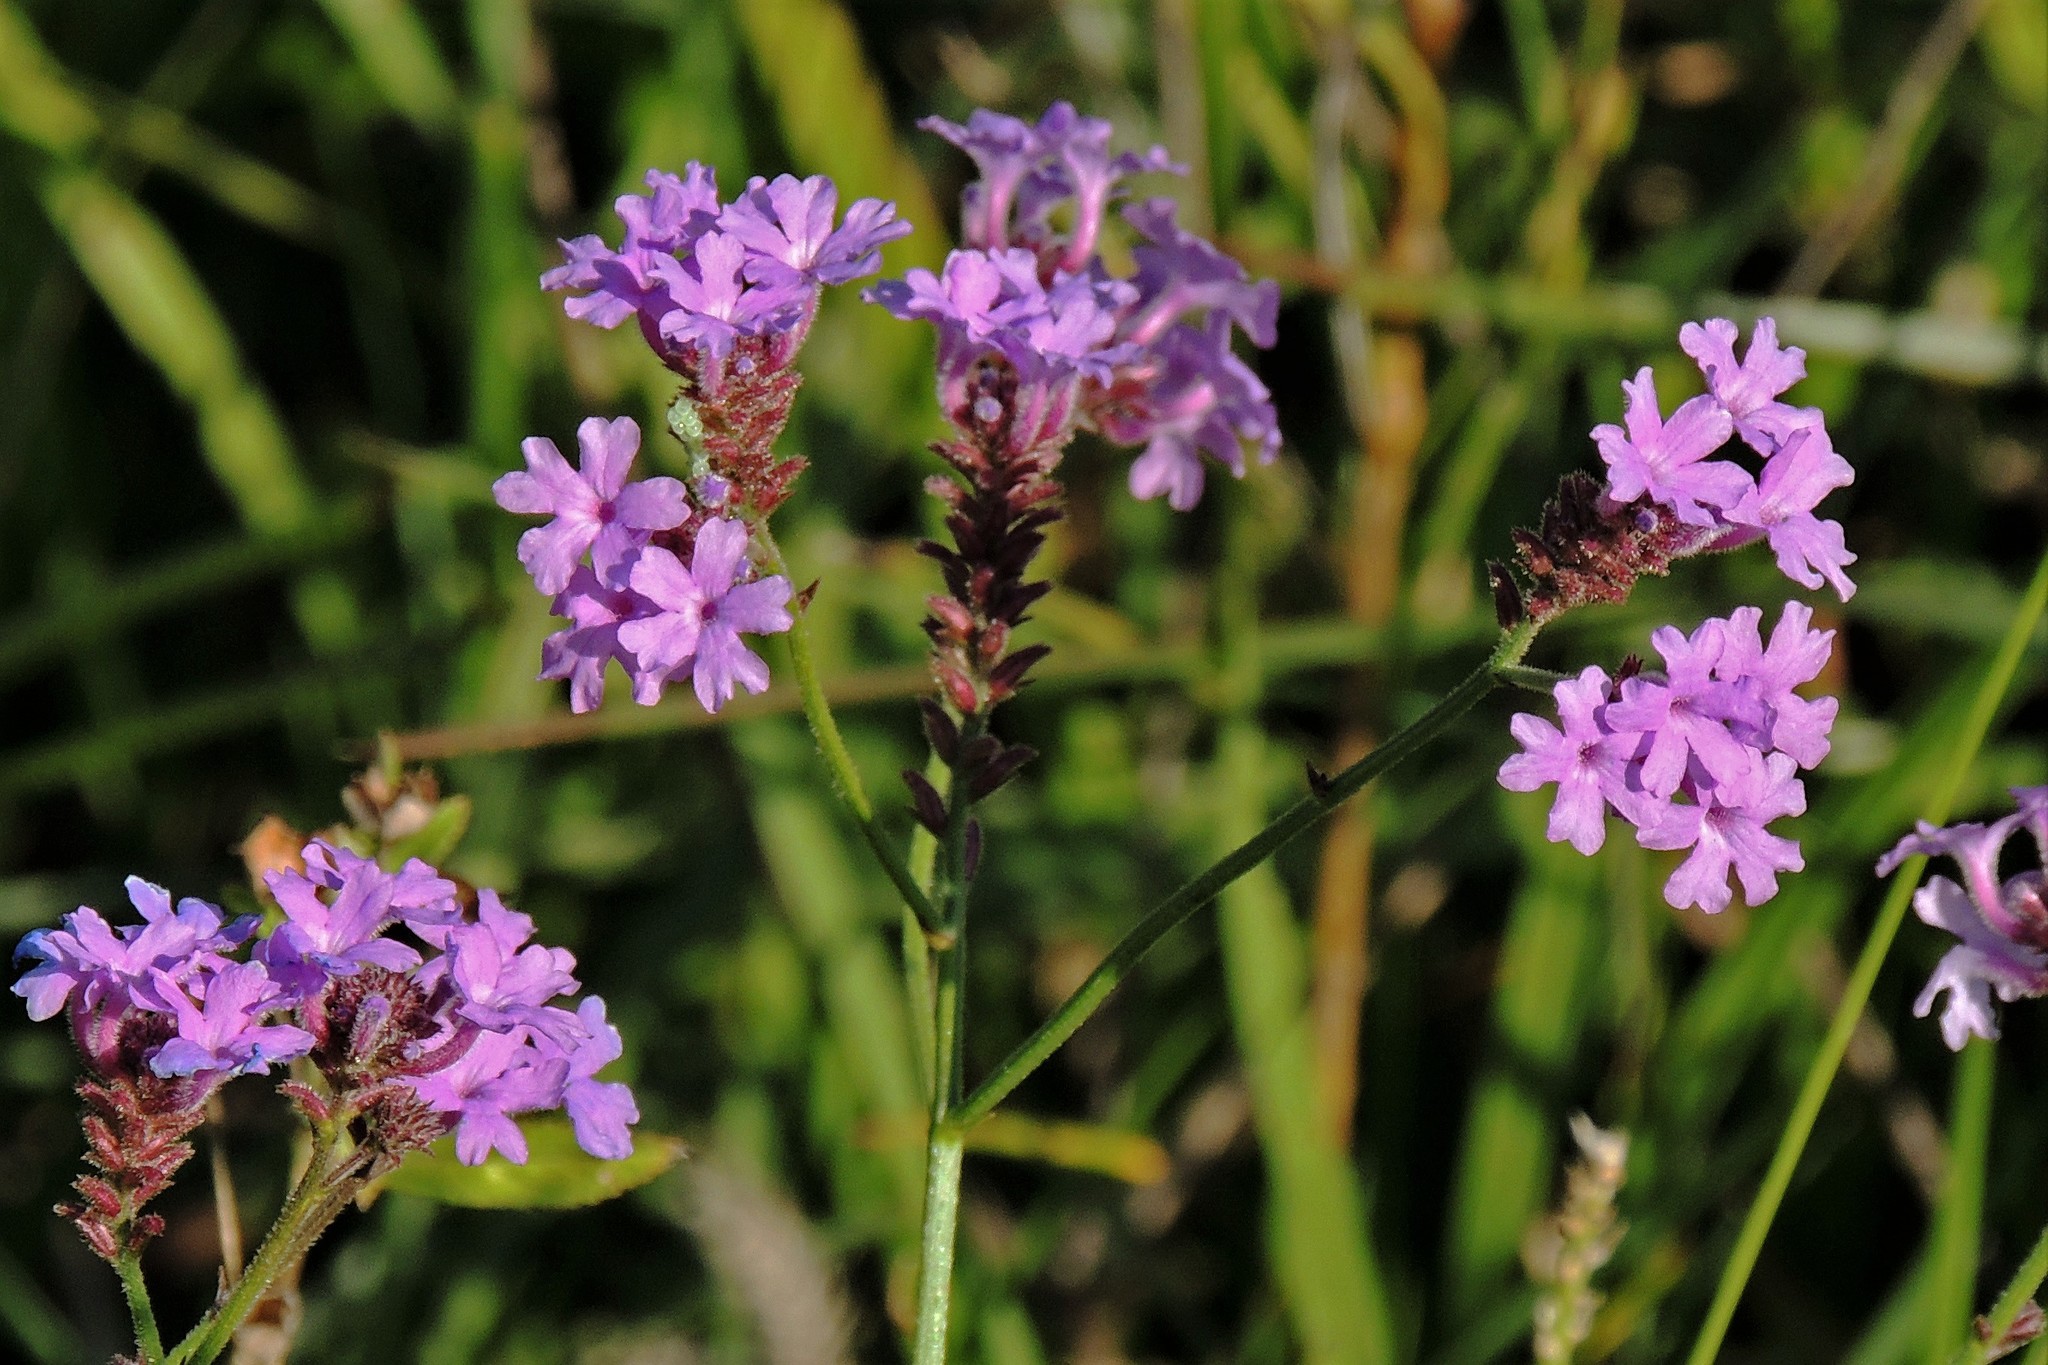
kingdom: Plantae
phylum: Tracheophyta
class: Magnoliopsida
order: Lamiales
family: Verbenaceae
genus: Verbena
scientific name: Verbena rigida
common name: Slender vervain
